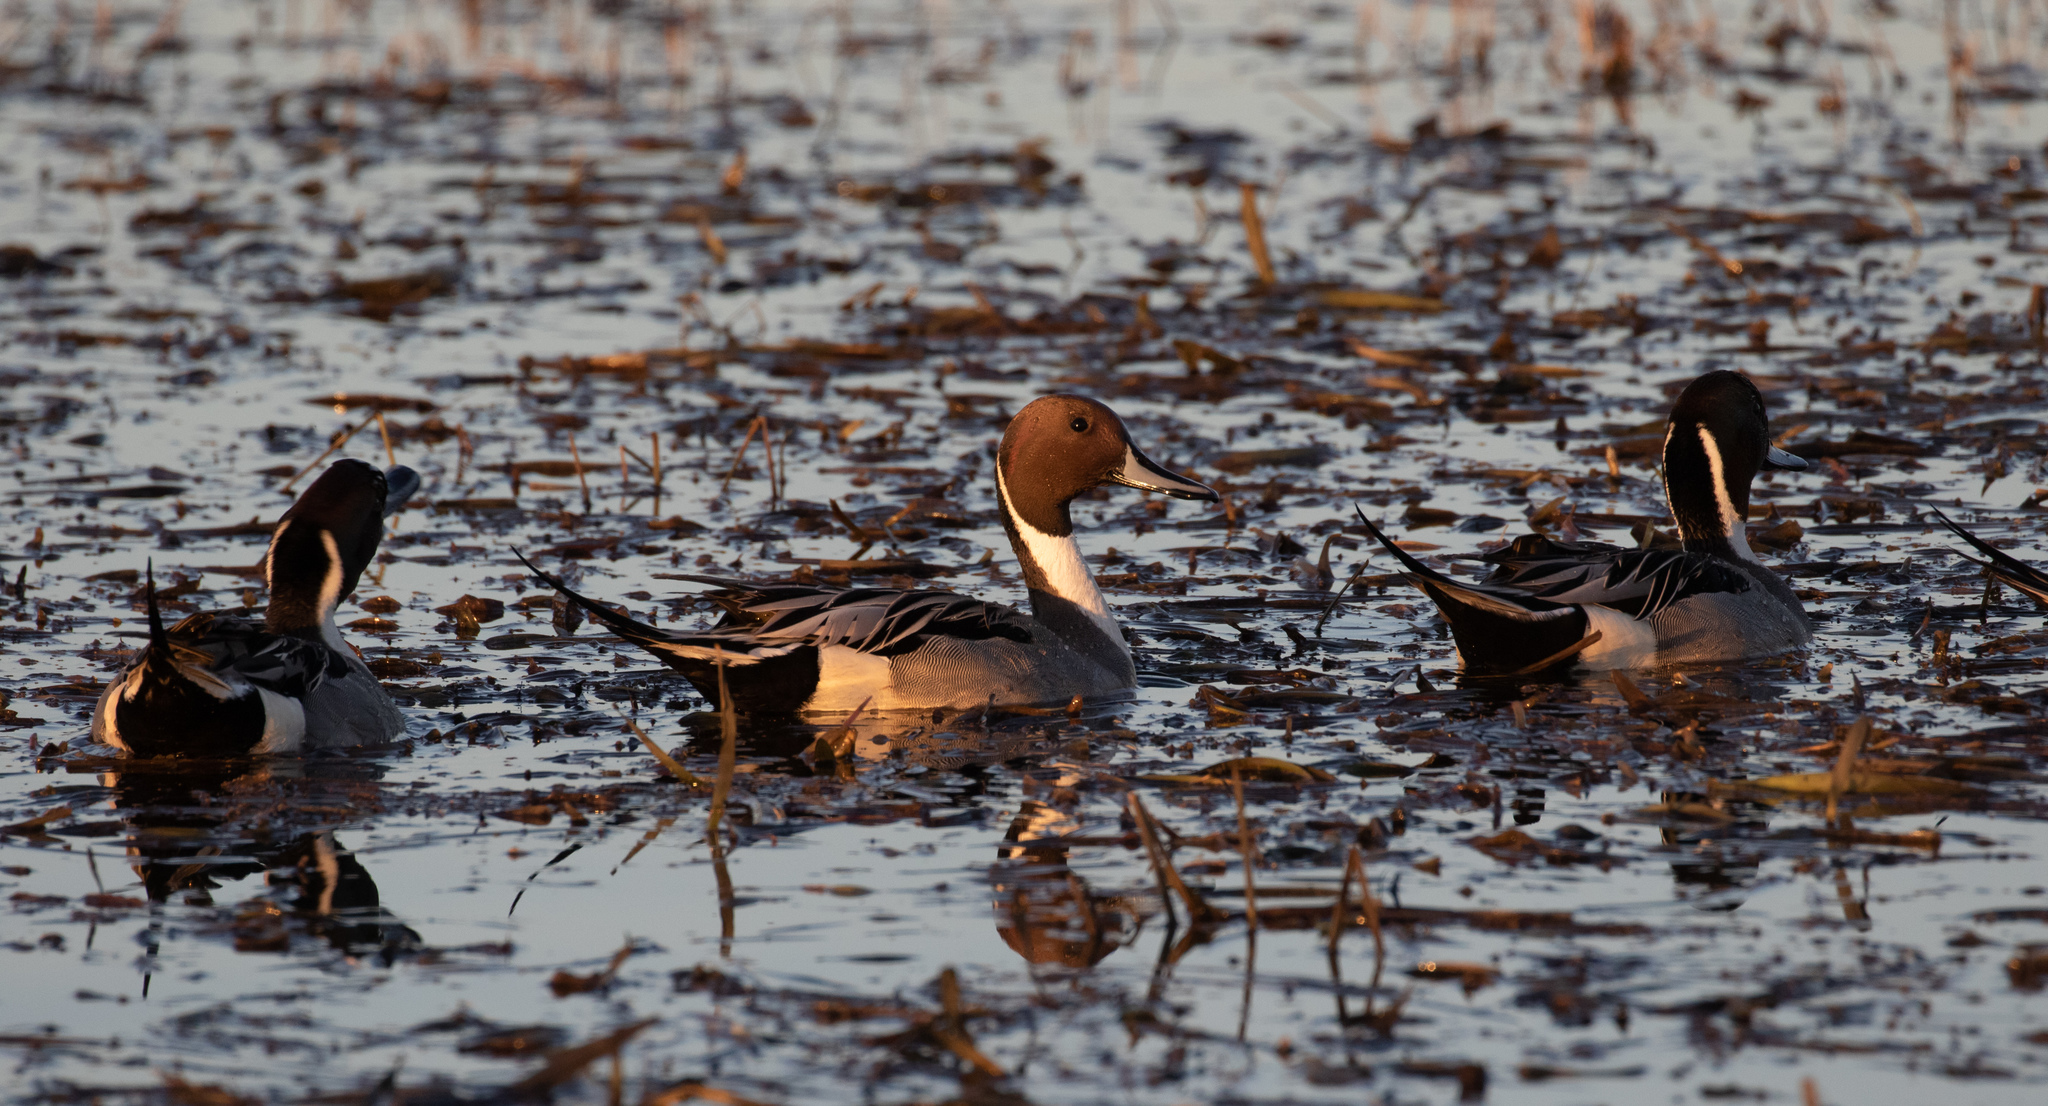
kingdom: Animalia
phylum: Chordata
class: Aves
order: Anseriformes
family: Anatidae
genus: Anas
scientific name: Anas acuta
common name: Northern pintail
